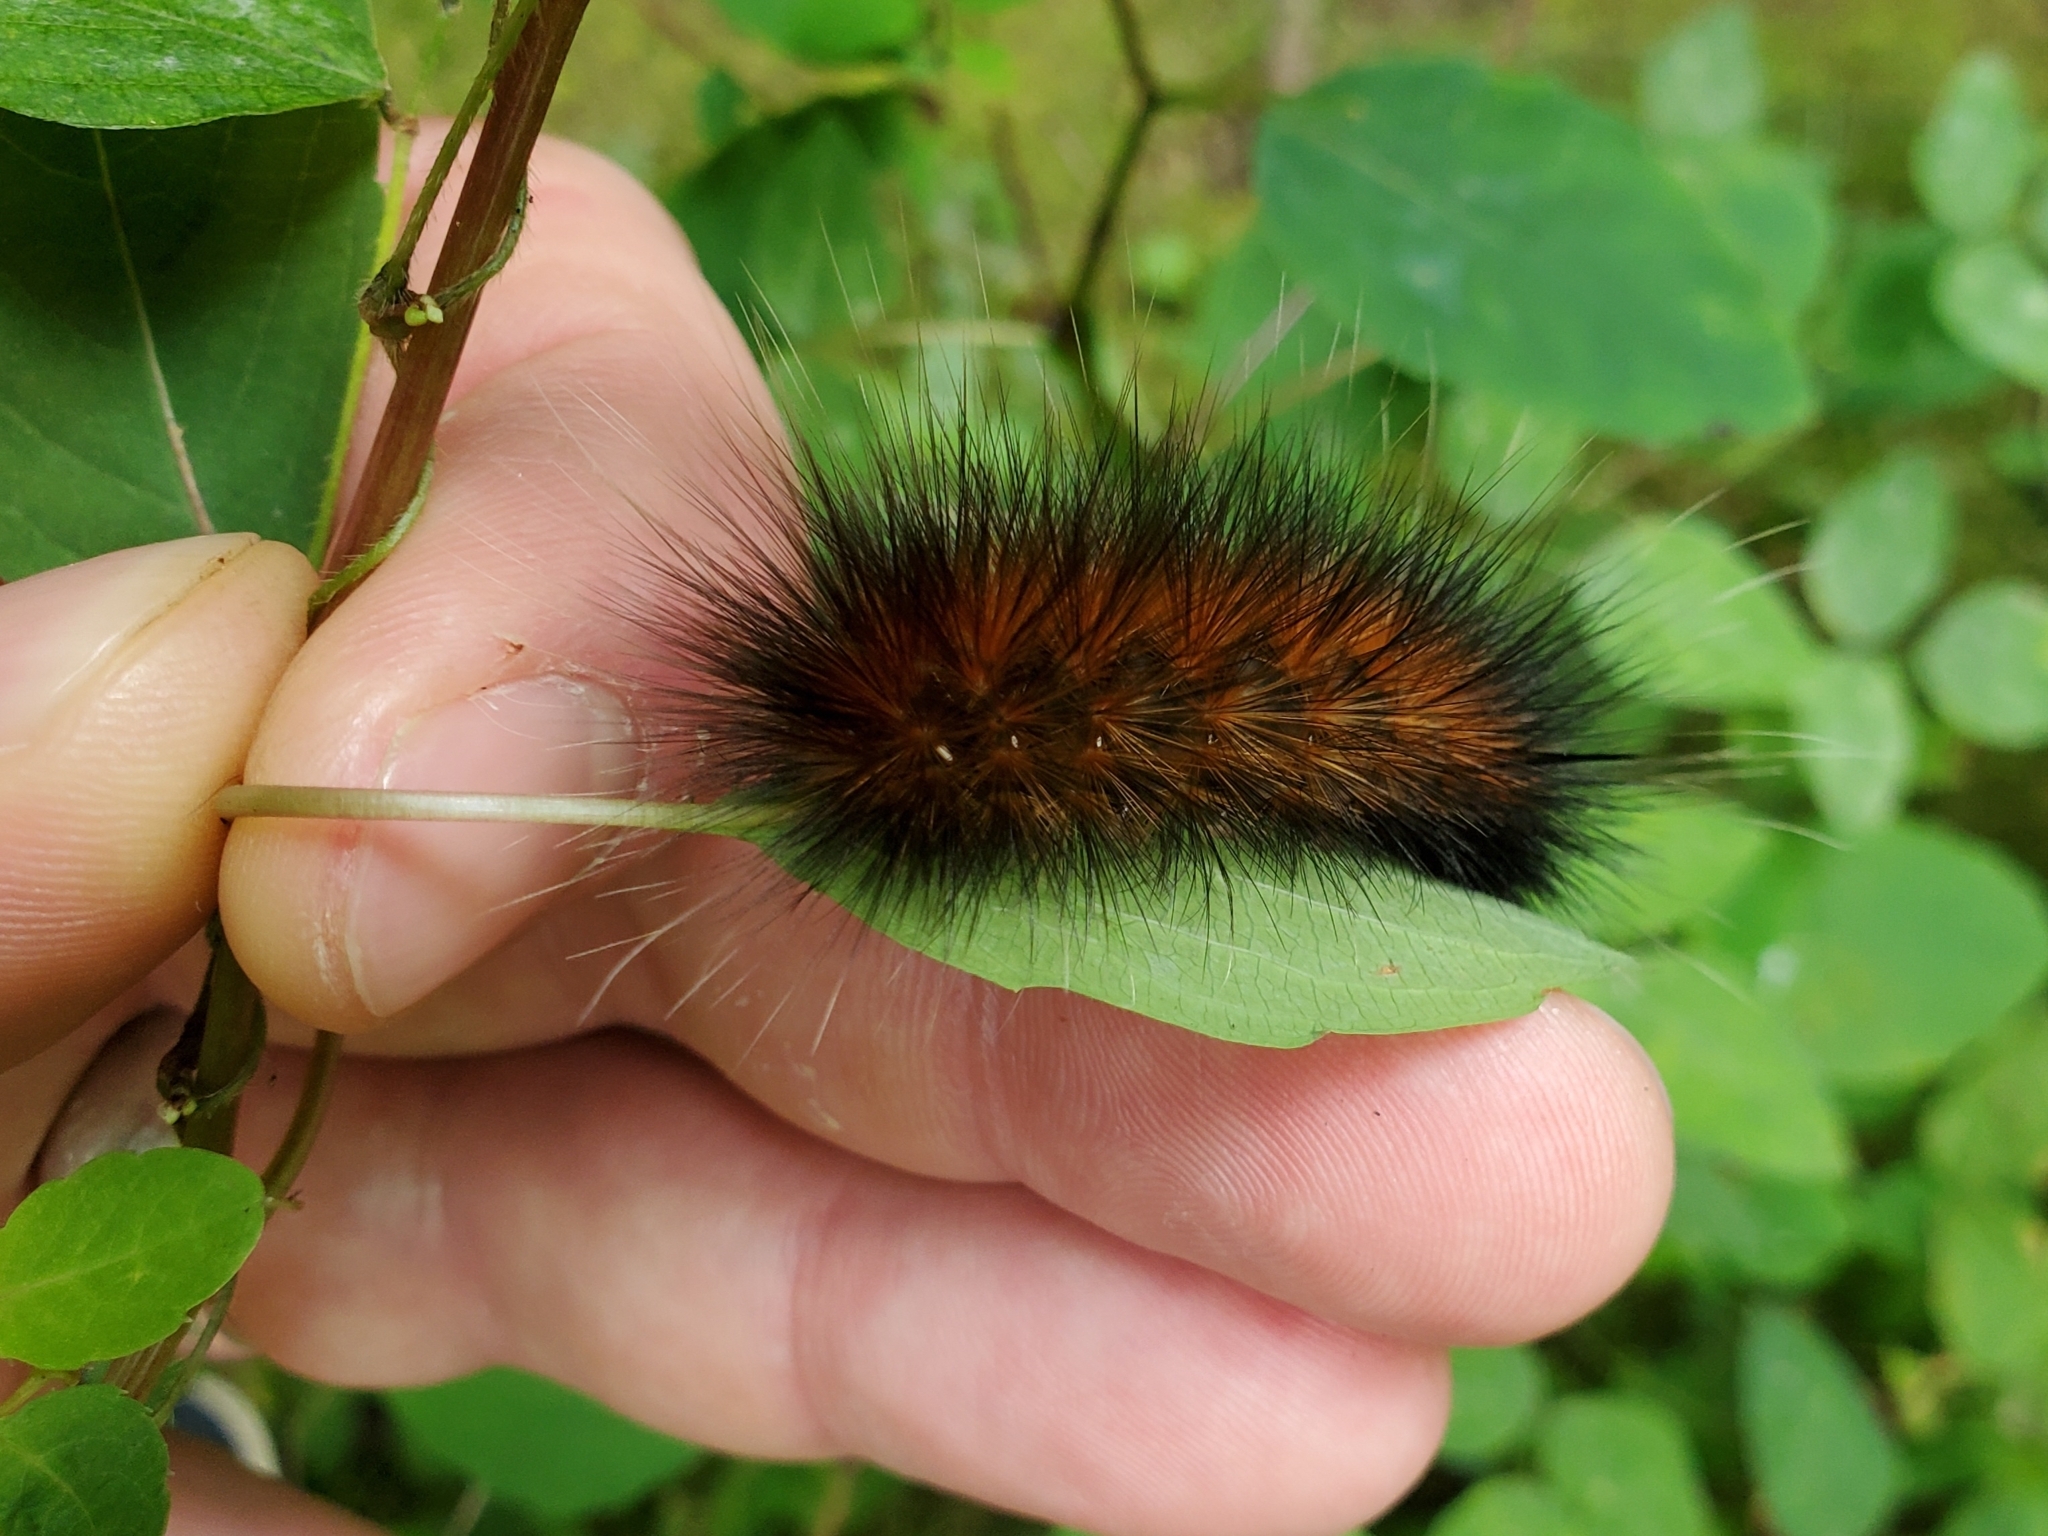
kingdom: Animalia
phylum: Arthropoda
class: Insecta
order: Lepidoptera
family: Erebidae
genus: Spilosoma
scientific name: Spilosoma virginica
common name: Virginia tiger moth
